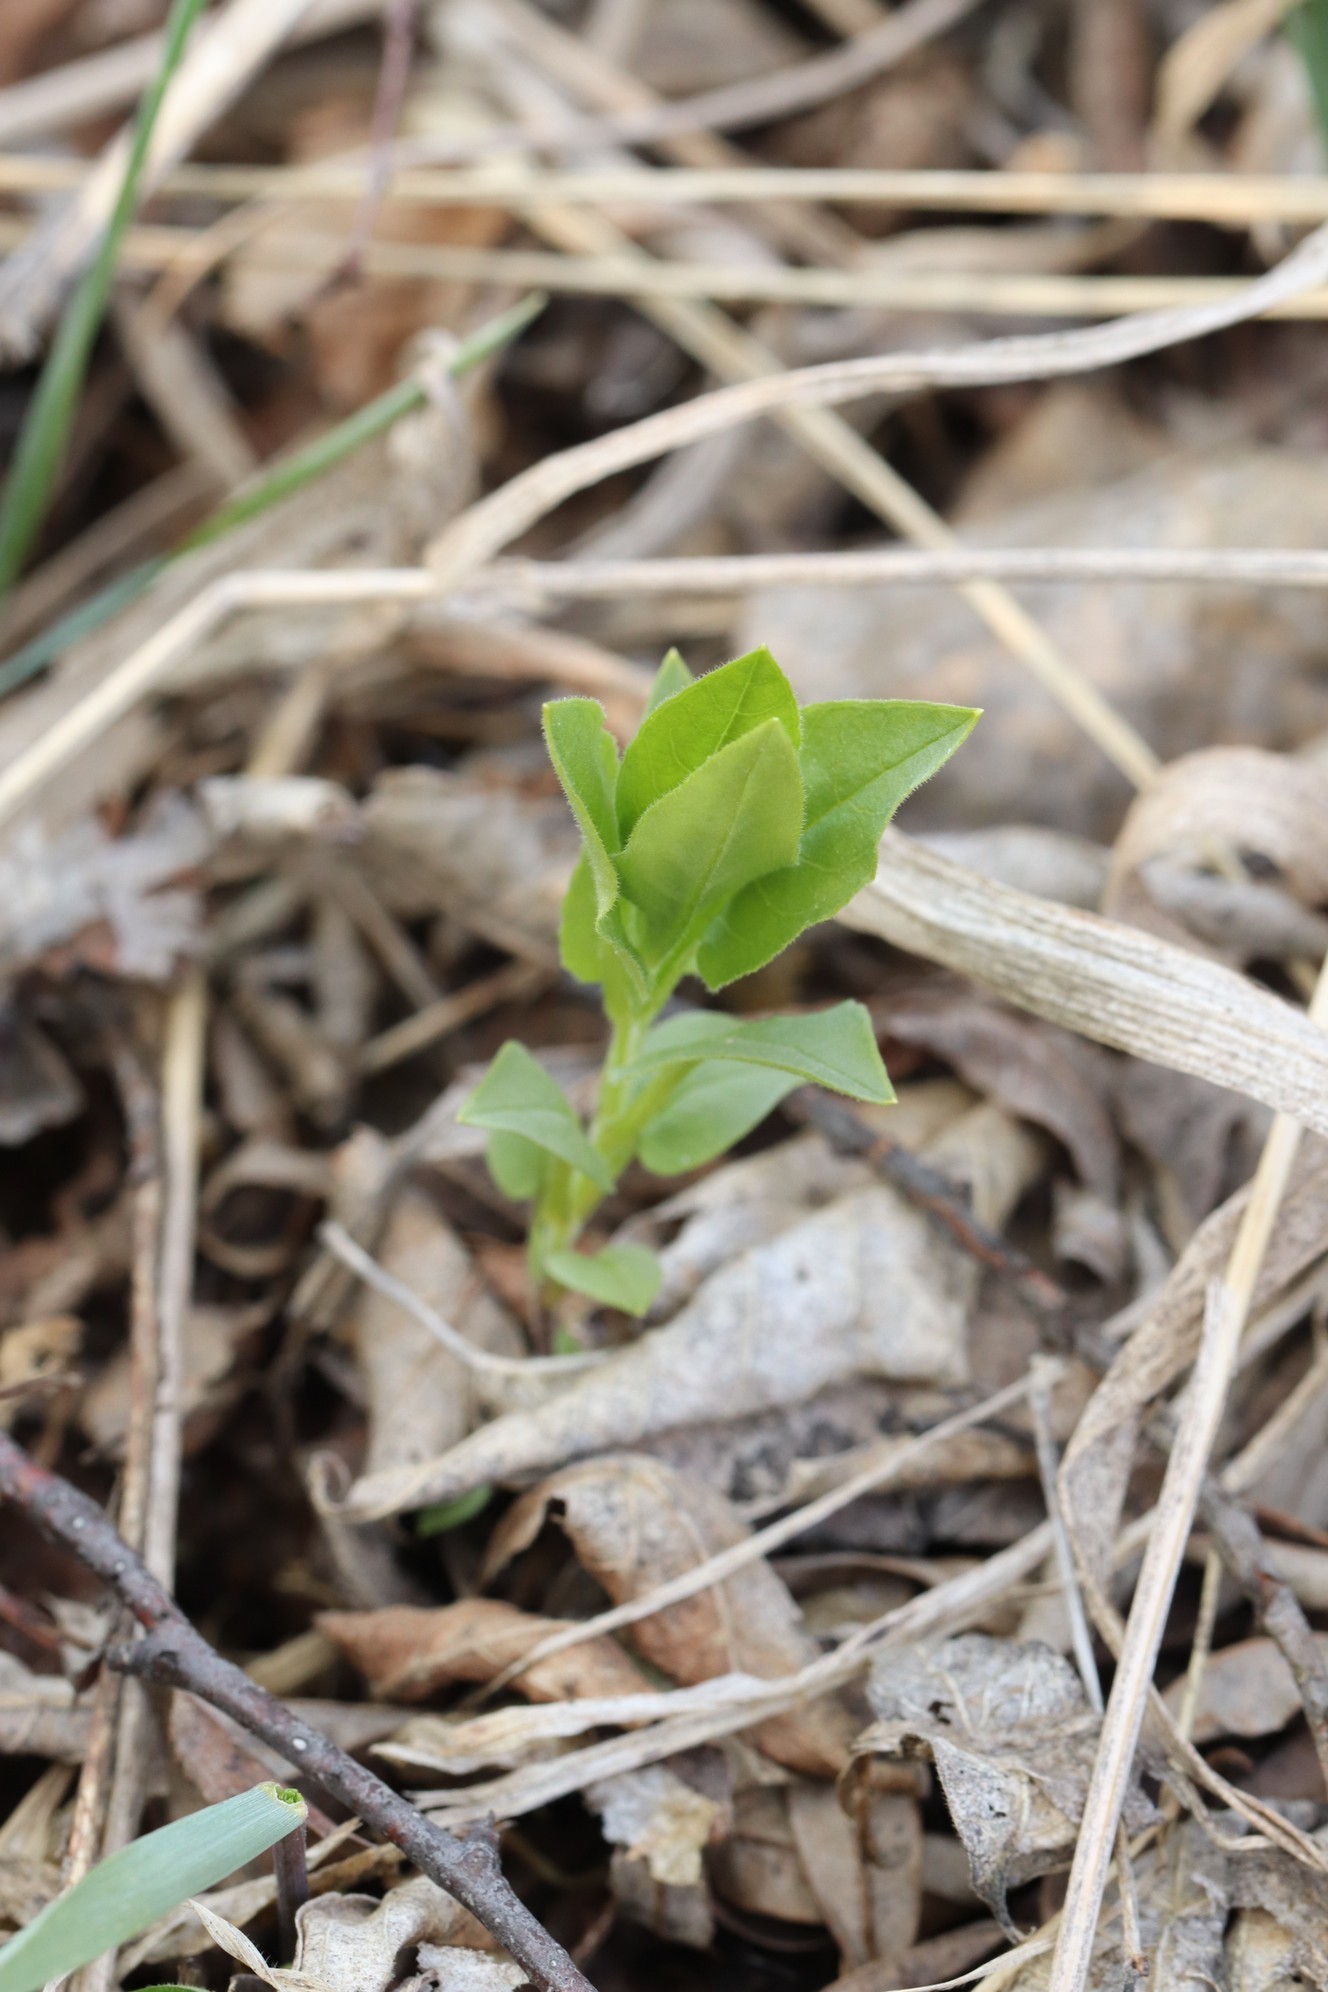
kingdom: Plantae
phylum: Tracheophyta
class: Magnoliopsida
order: Caryophyllales
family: Caryophyllaceae
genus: Stellaria
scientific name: Stellaria bungeana
